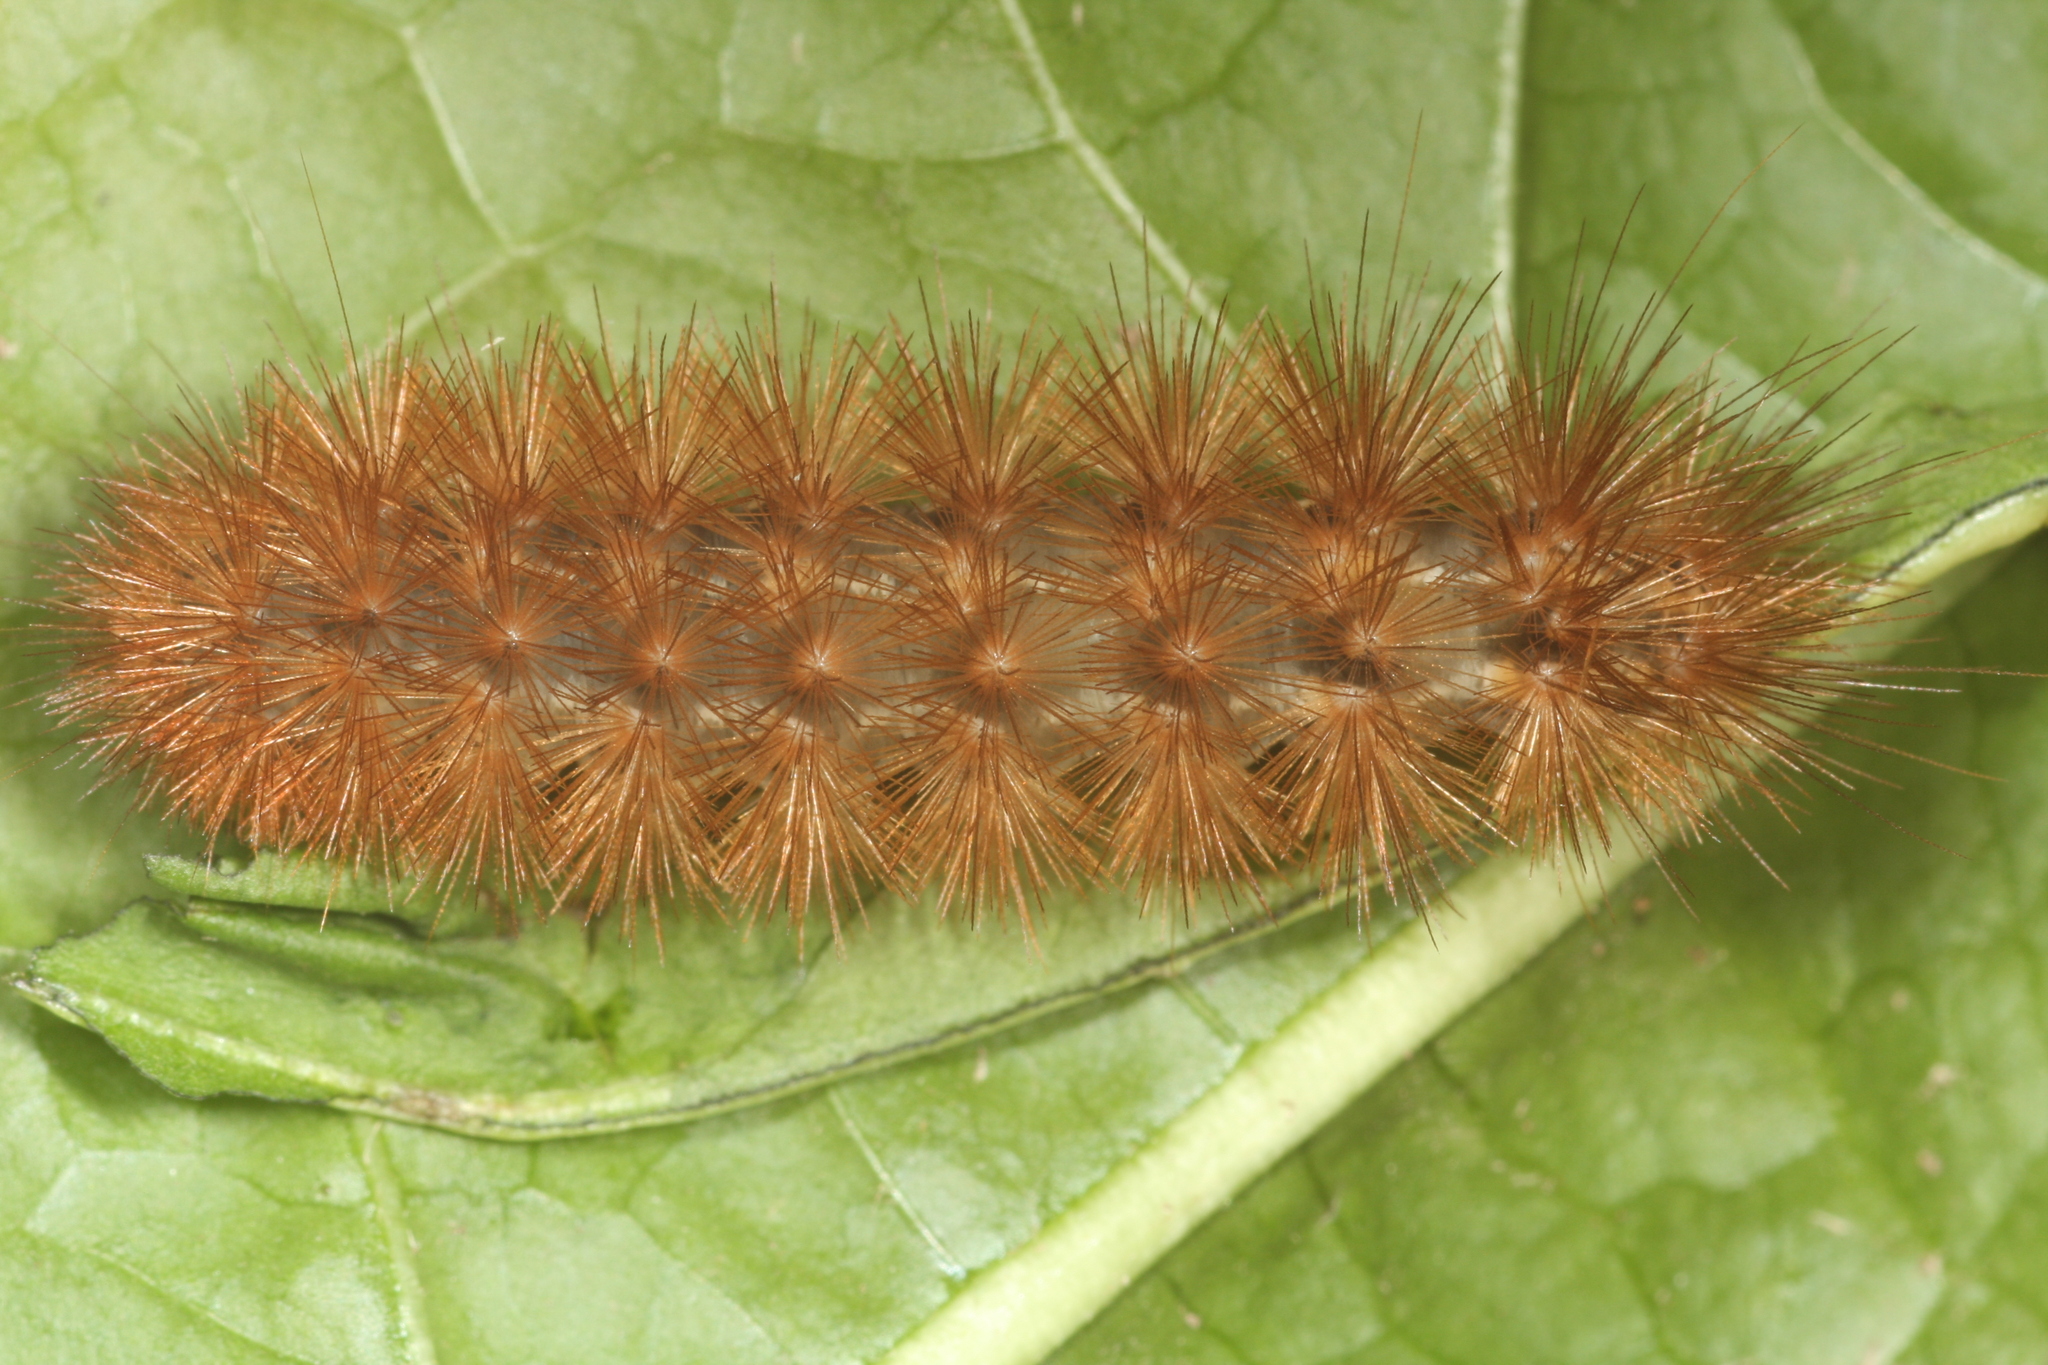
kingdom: Animalia
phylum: Arthropoda
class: Insecta
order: Lepidoptera
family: Erebidae
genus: Diaphora
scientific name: Diaphora mendica
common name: Muslin moth
